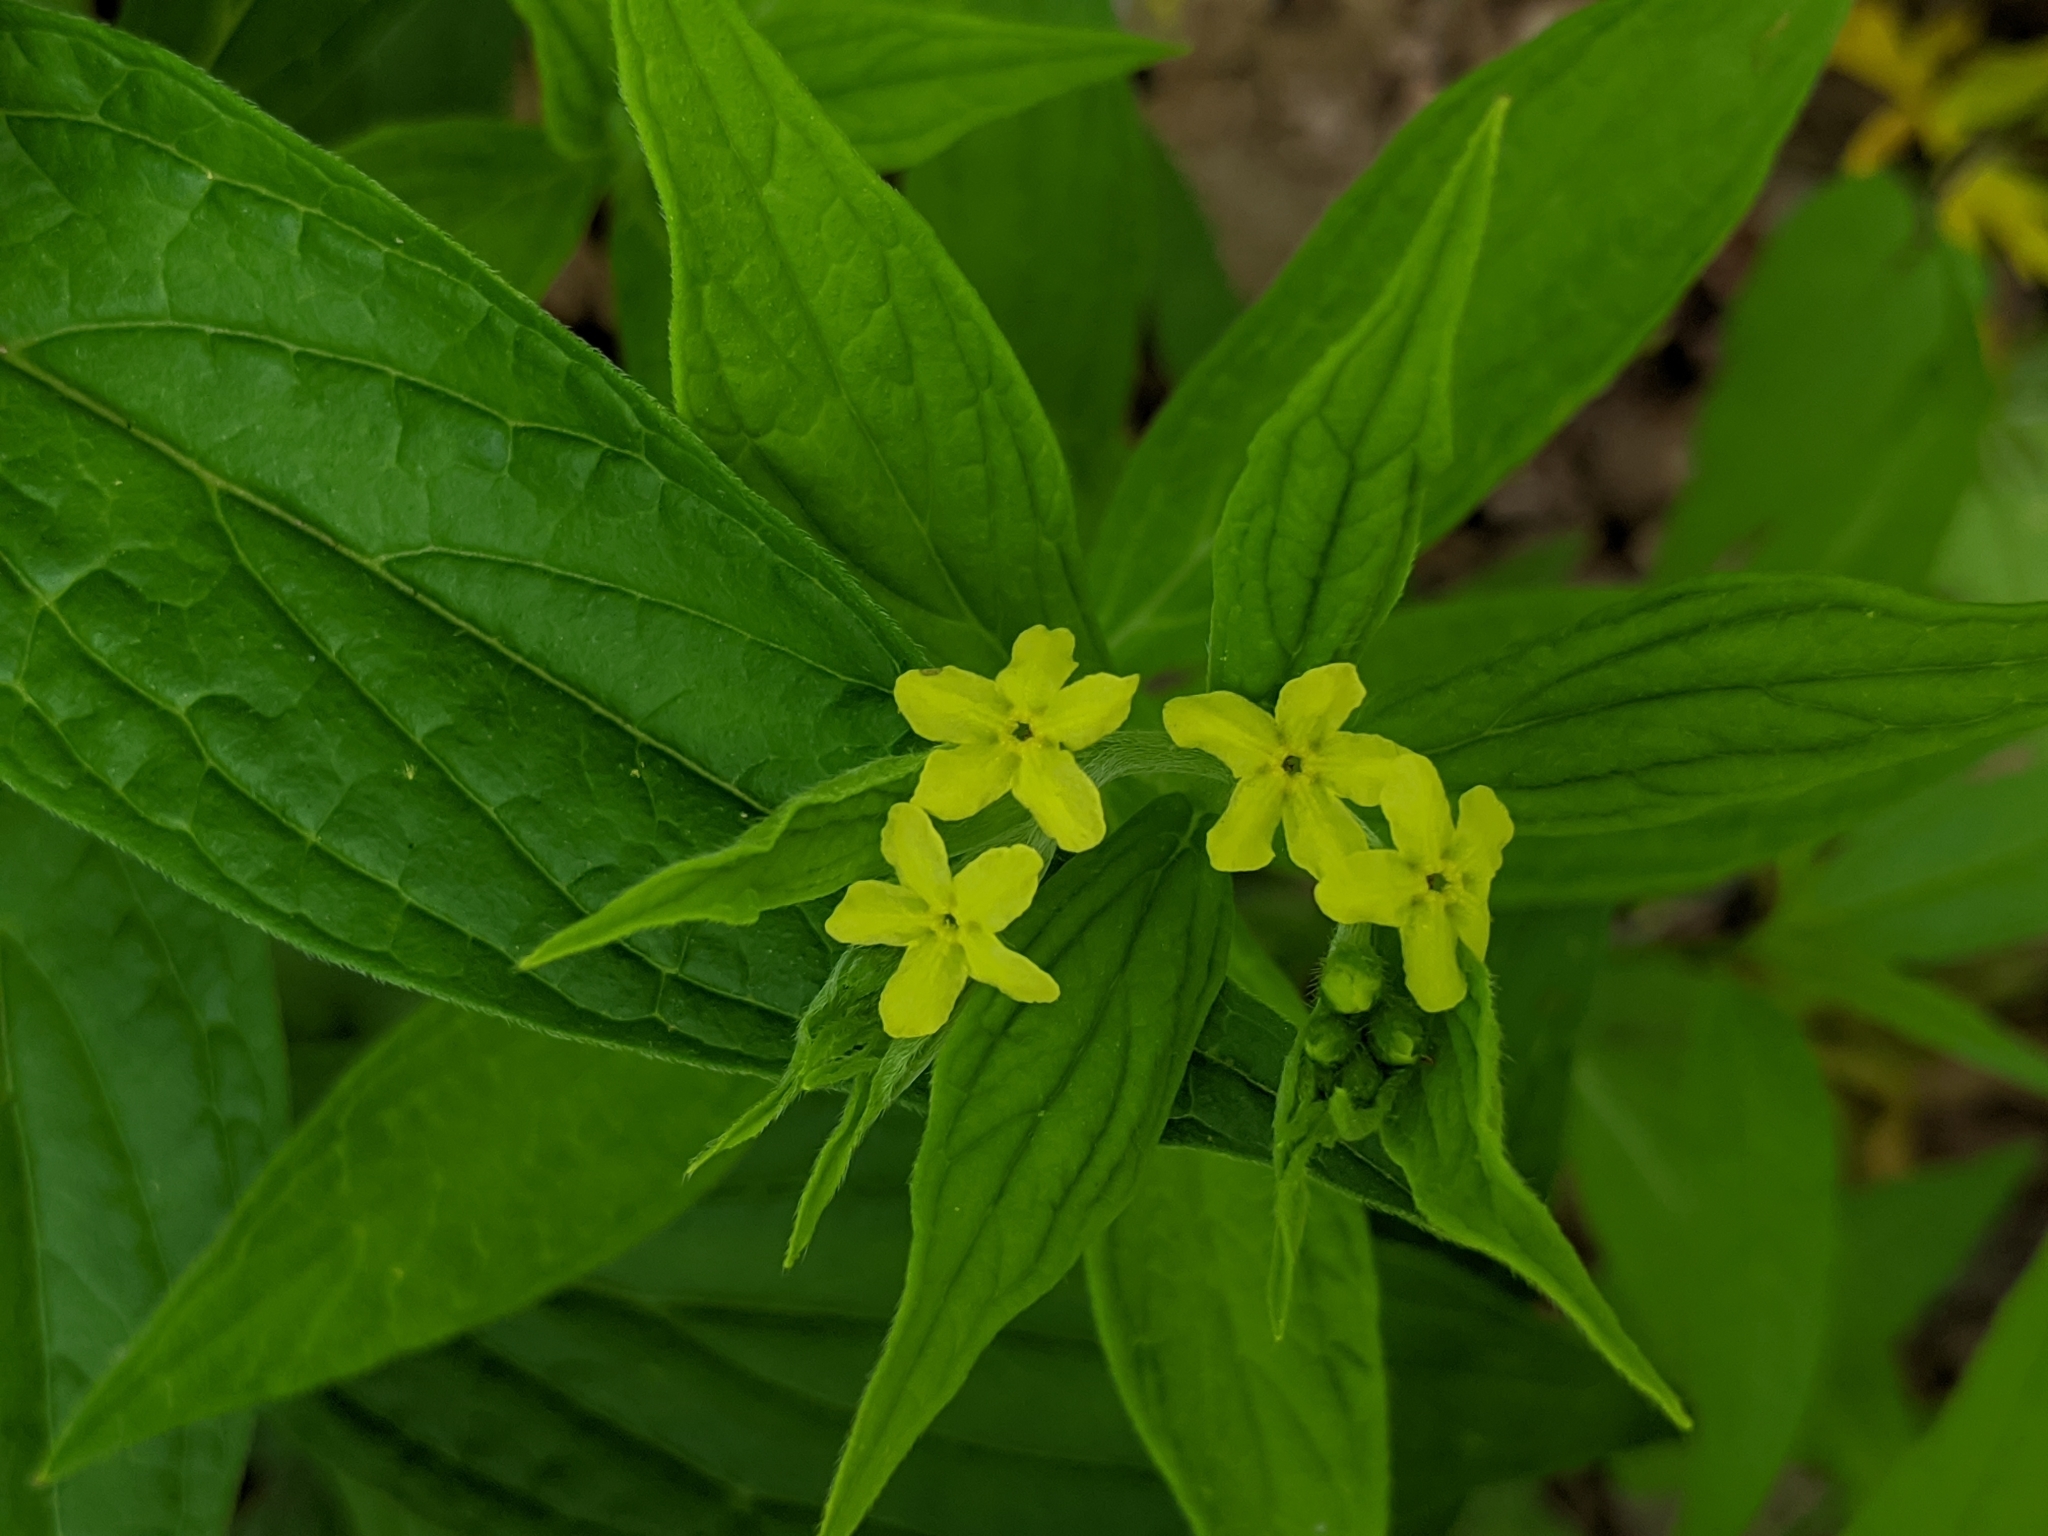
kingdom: Plantae
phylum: Tracheophyta
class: Magnoliopsida
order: Boraginales
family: Boraginaceae
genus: Lithospermum
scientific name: Lithospermum latifolium
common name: American gromwell
